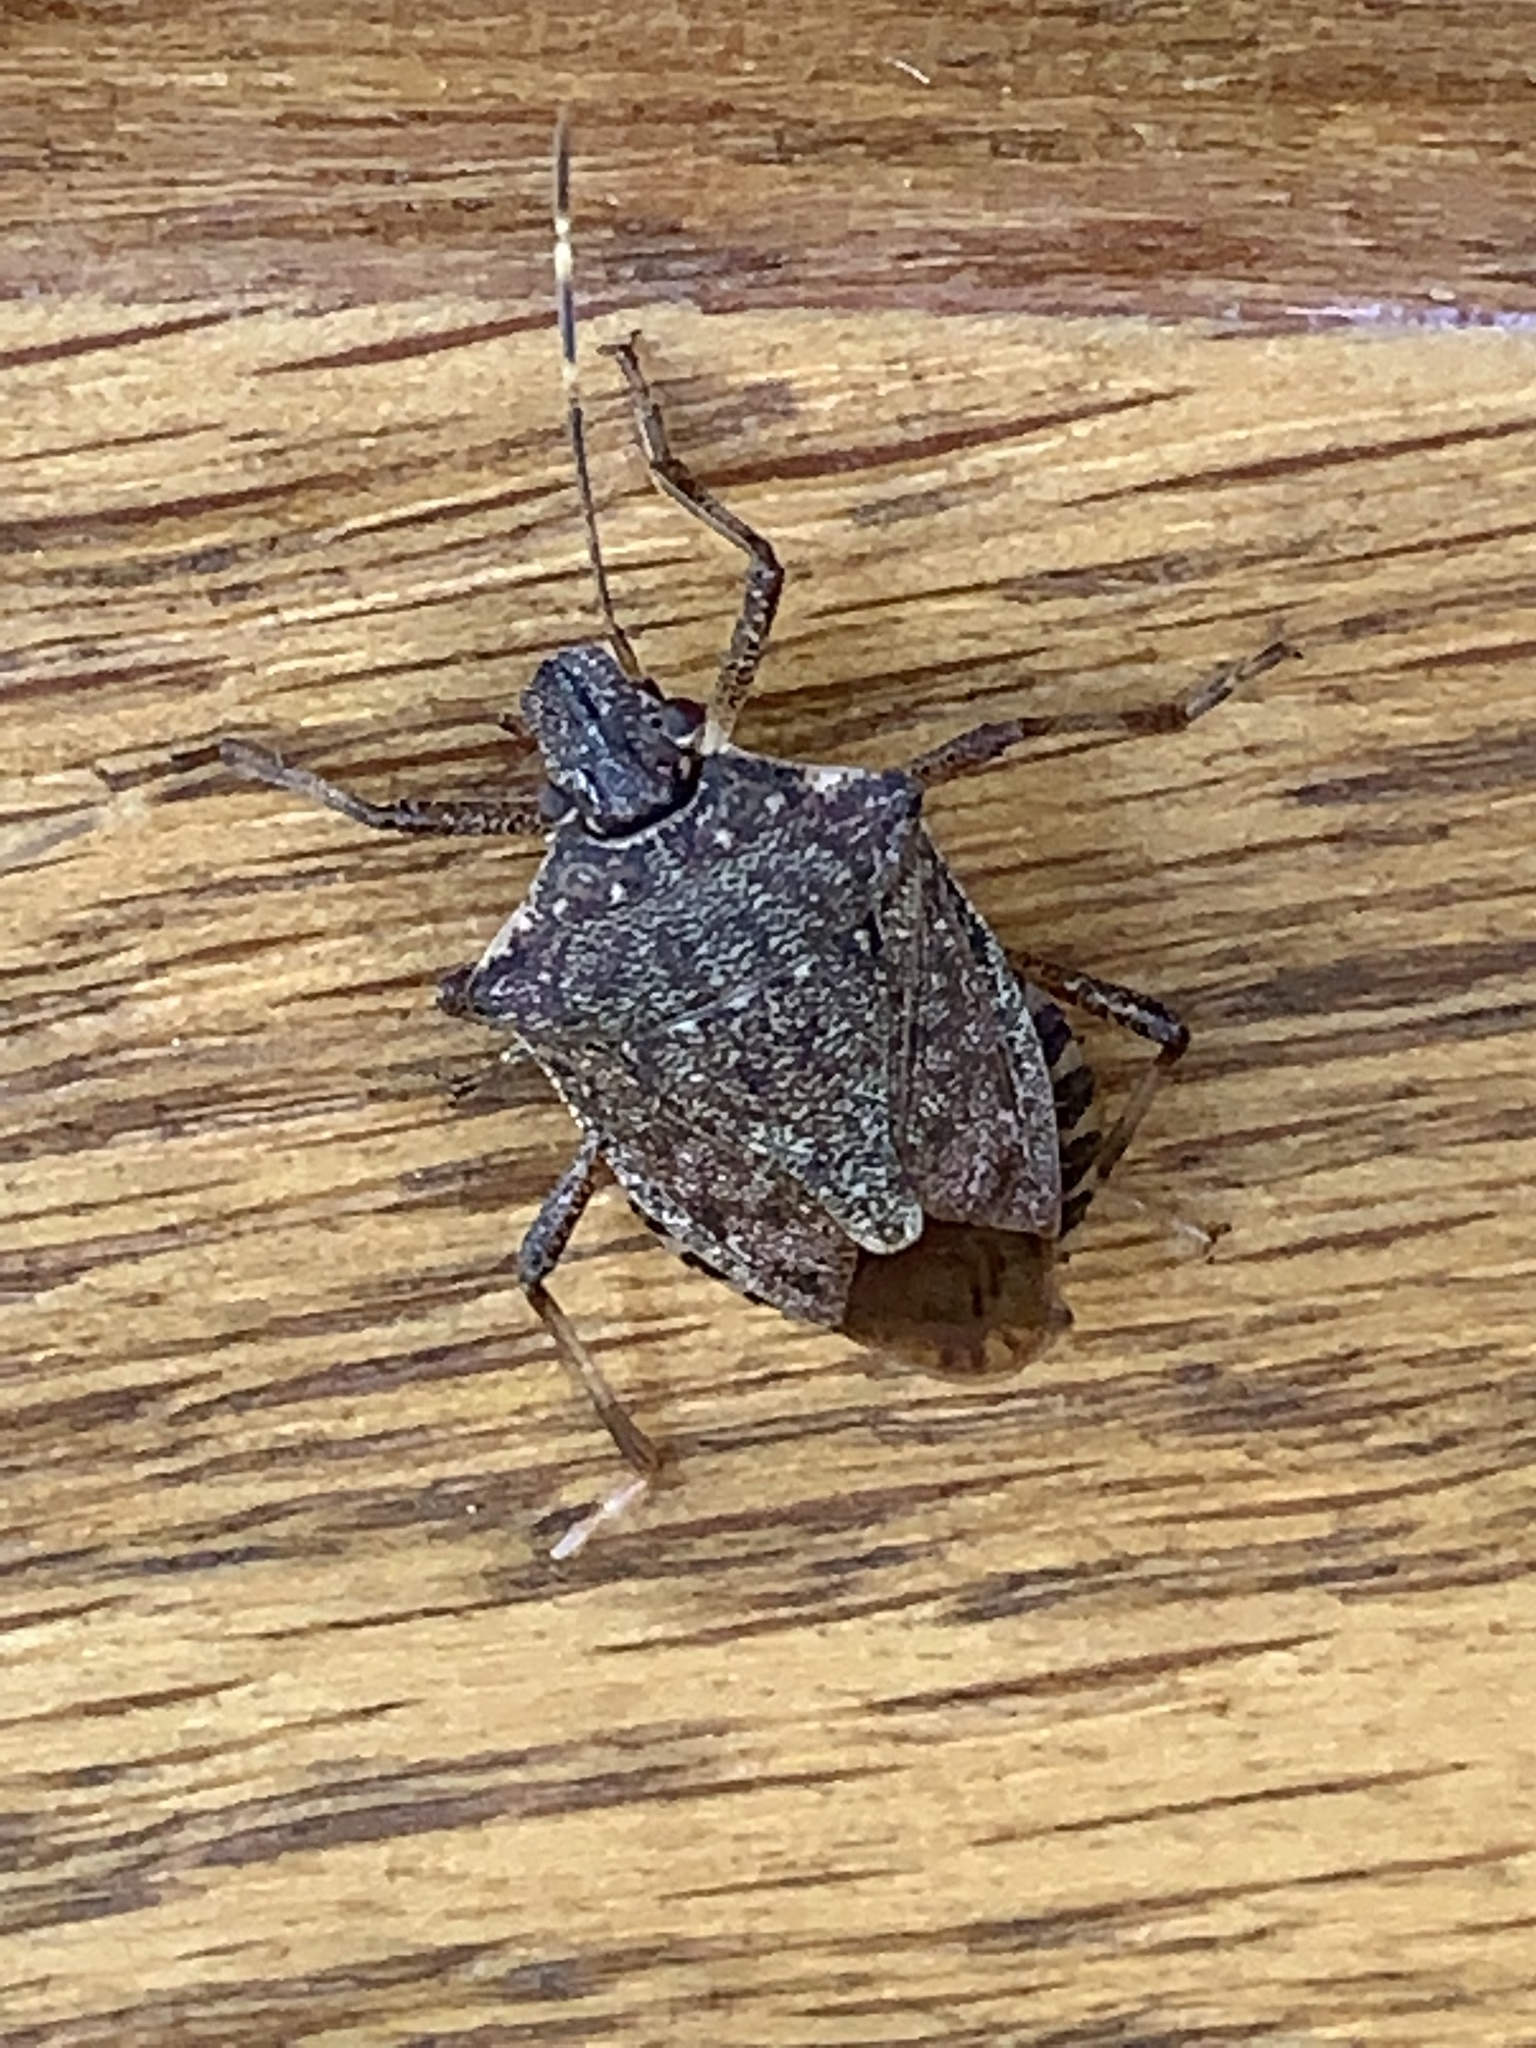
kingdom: Animalia
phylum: Arthropoda
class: Insecta
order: Hemiptera
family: Pentatomidae
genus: Halyomorpha
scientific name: Halyomorpha halys
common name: Brown marmorated stink bug
